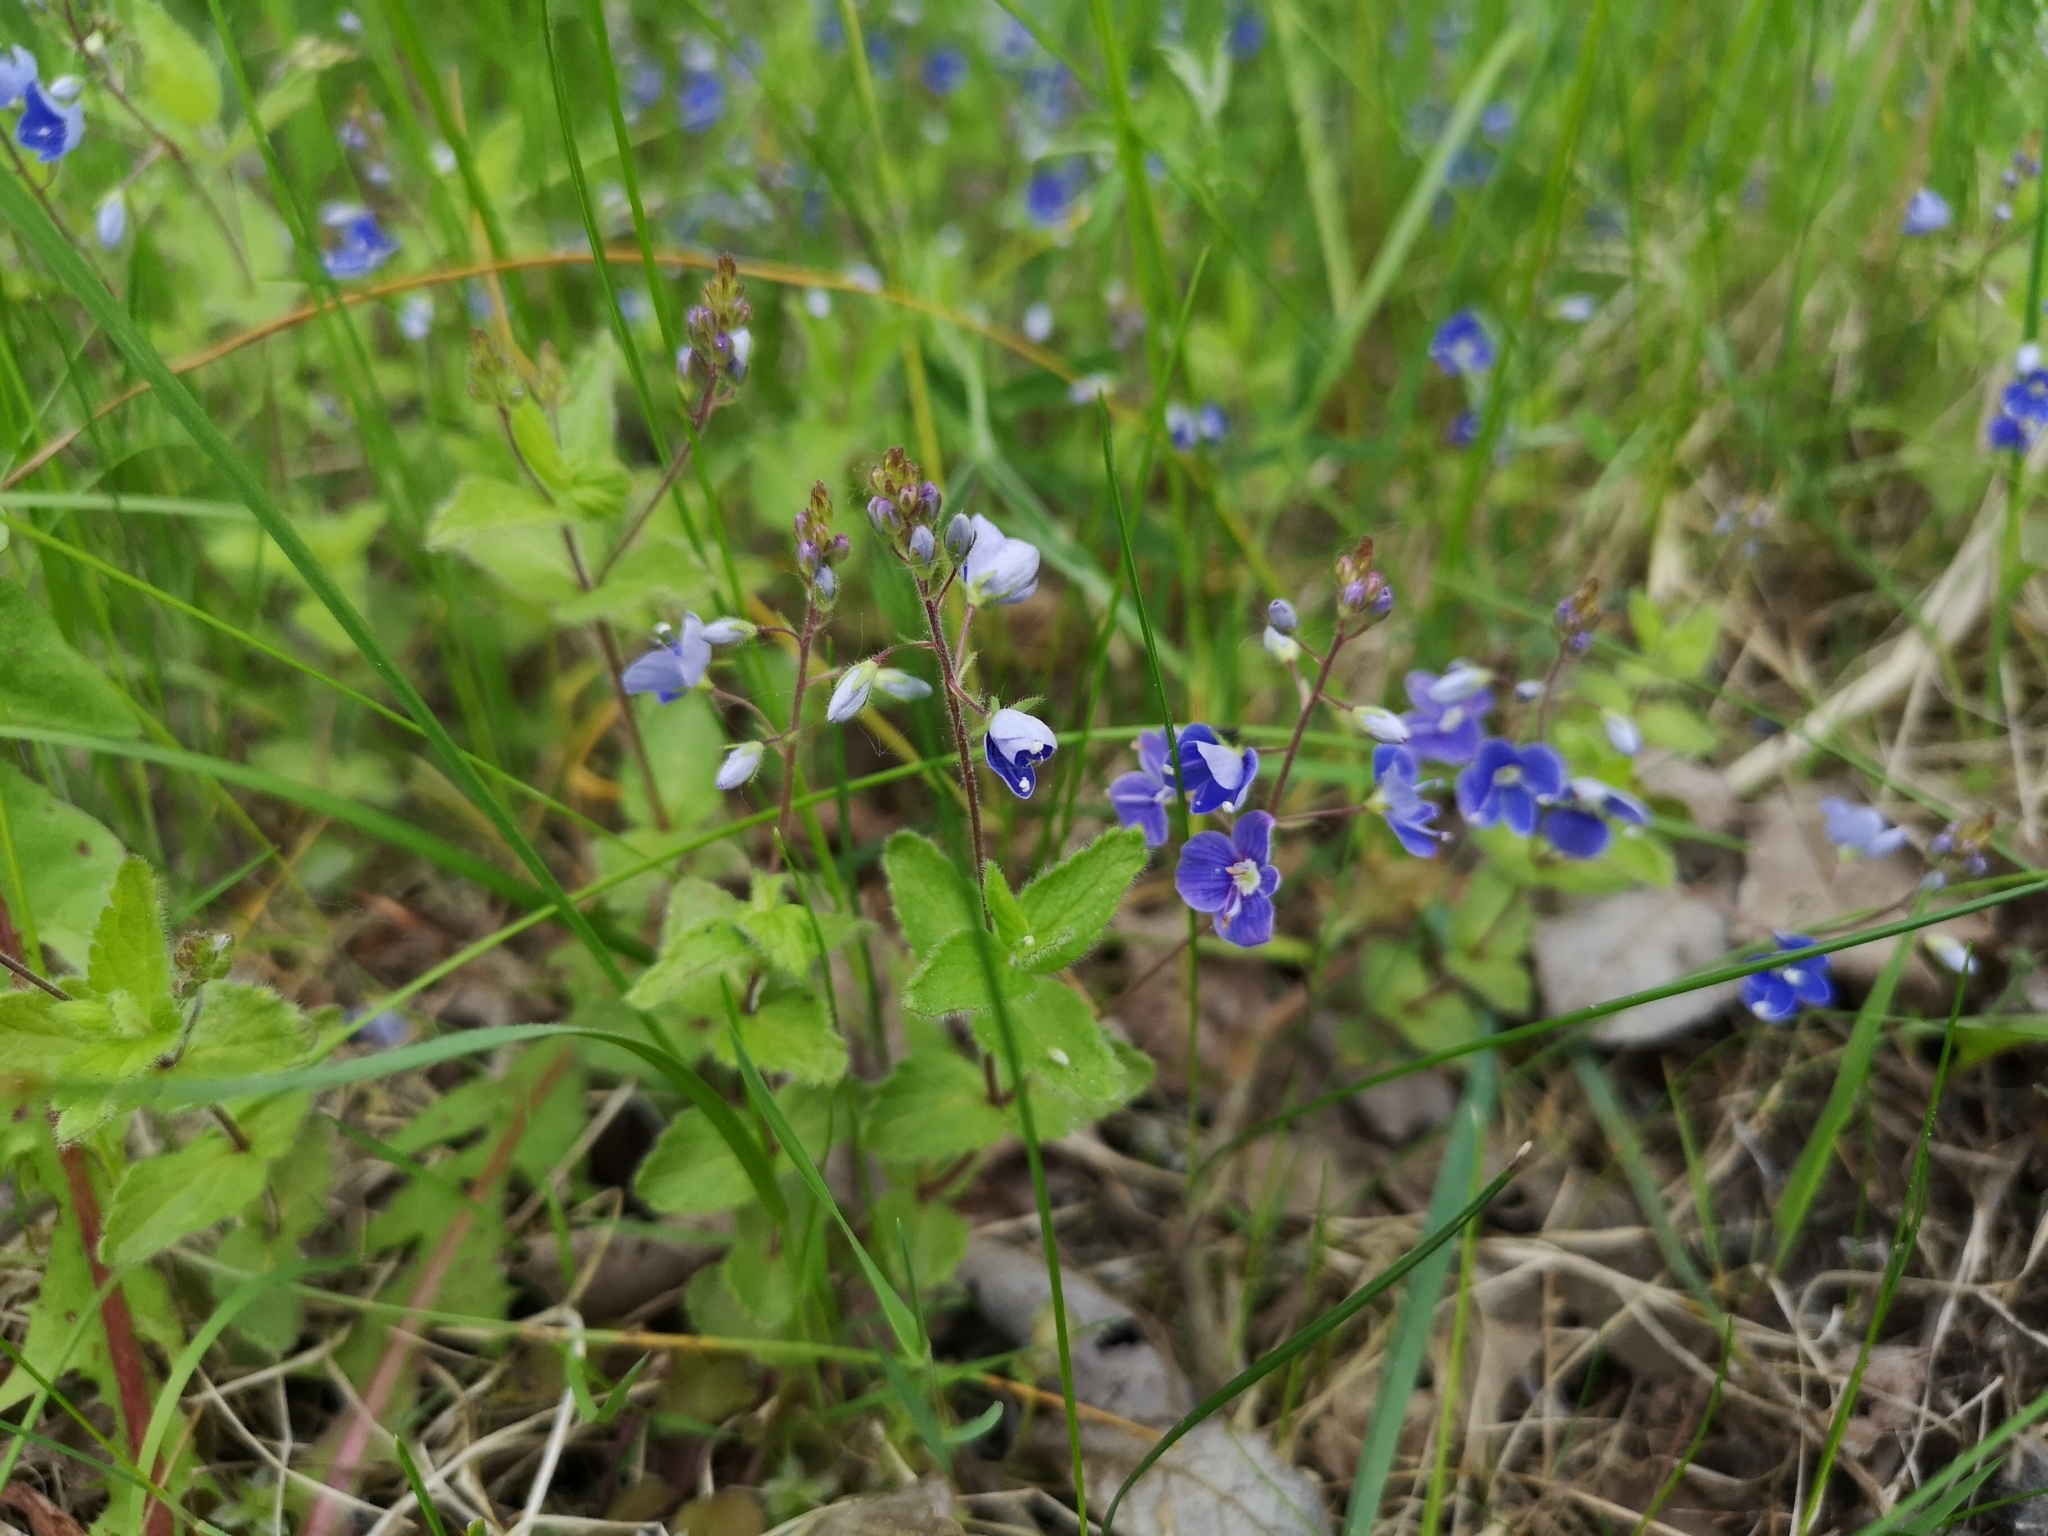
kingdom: Plantae
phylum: Tracheophyta
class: Magnoliopsida
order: Lamiales
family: Plantaginaceae
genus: Veronica
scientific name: Veronica chamaedrys
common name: Germander speedwell
